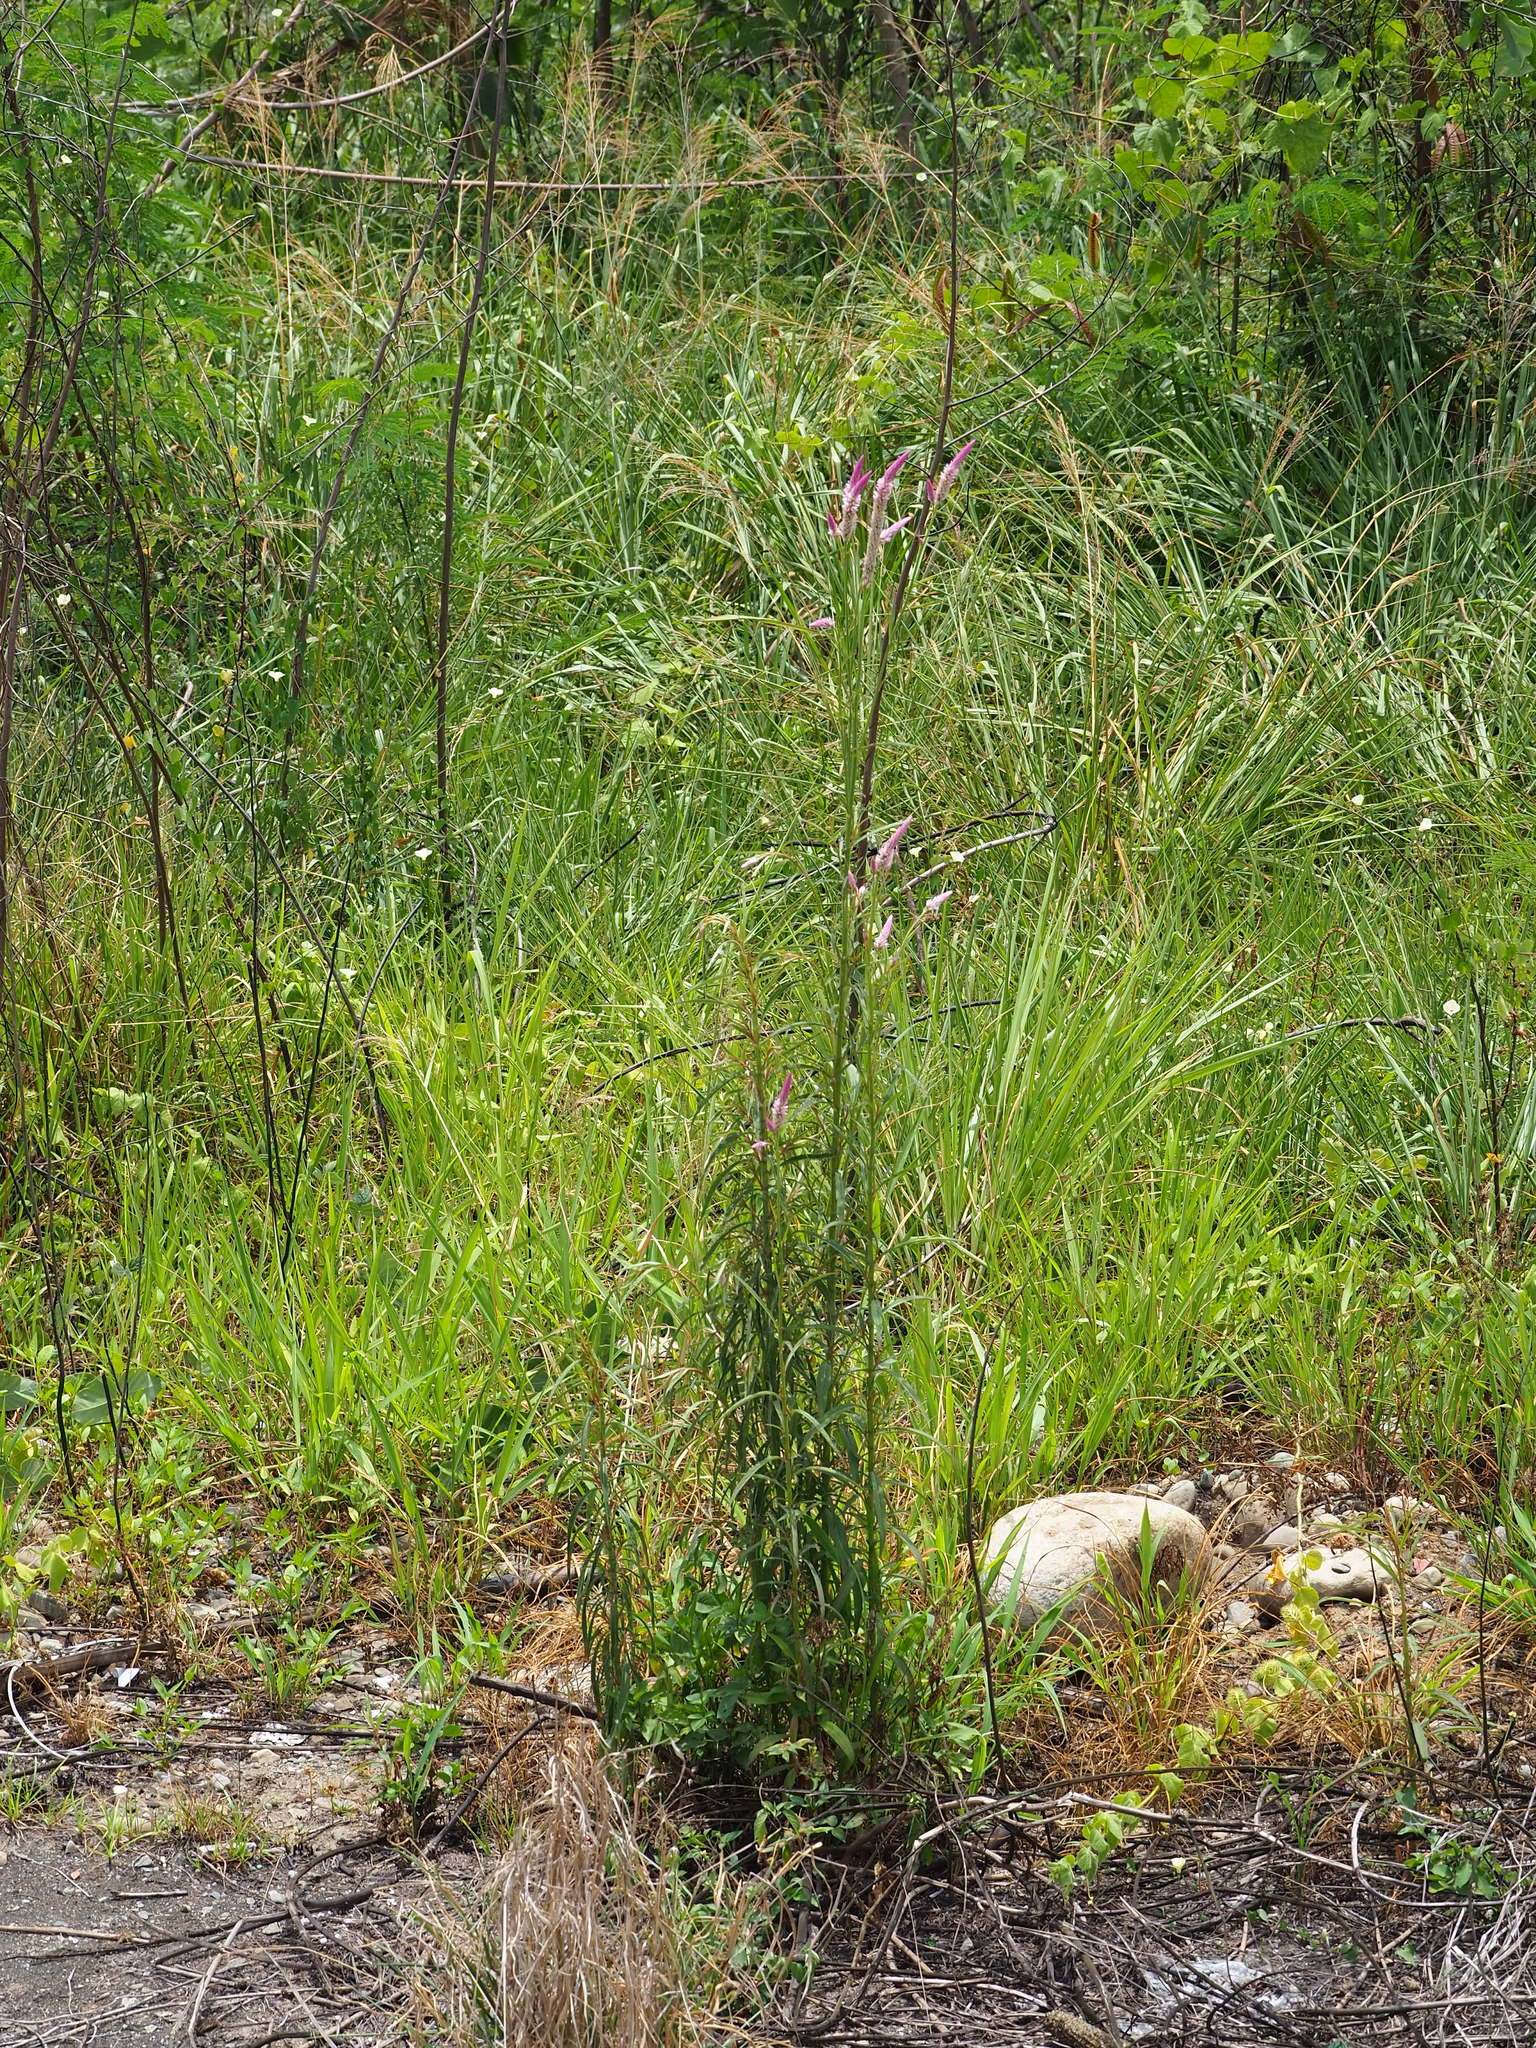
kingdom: Plantae
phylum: Tracheophyta
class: Magnoliopsida
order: Caryophyllales
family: Amaranthaceae
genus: Celosia
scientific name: Celosia argentea
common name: Feather cockscomb
